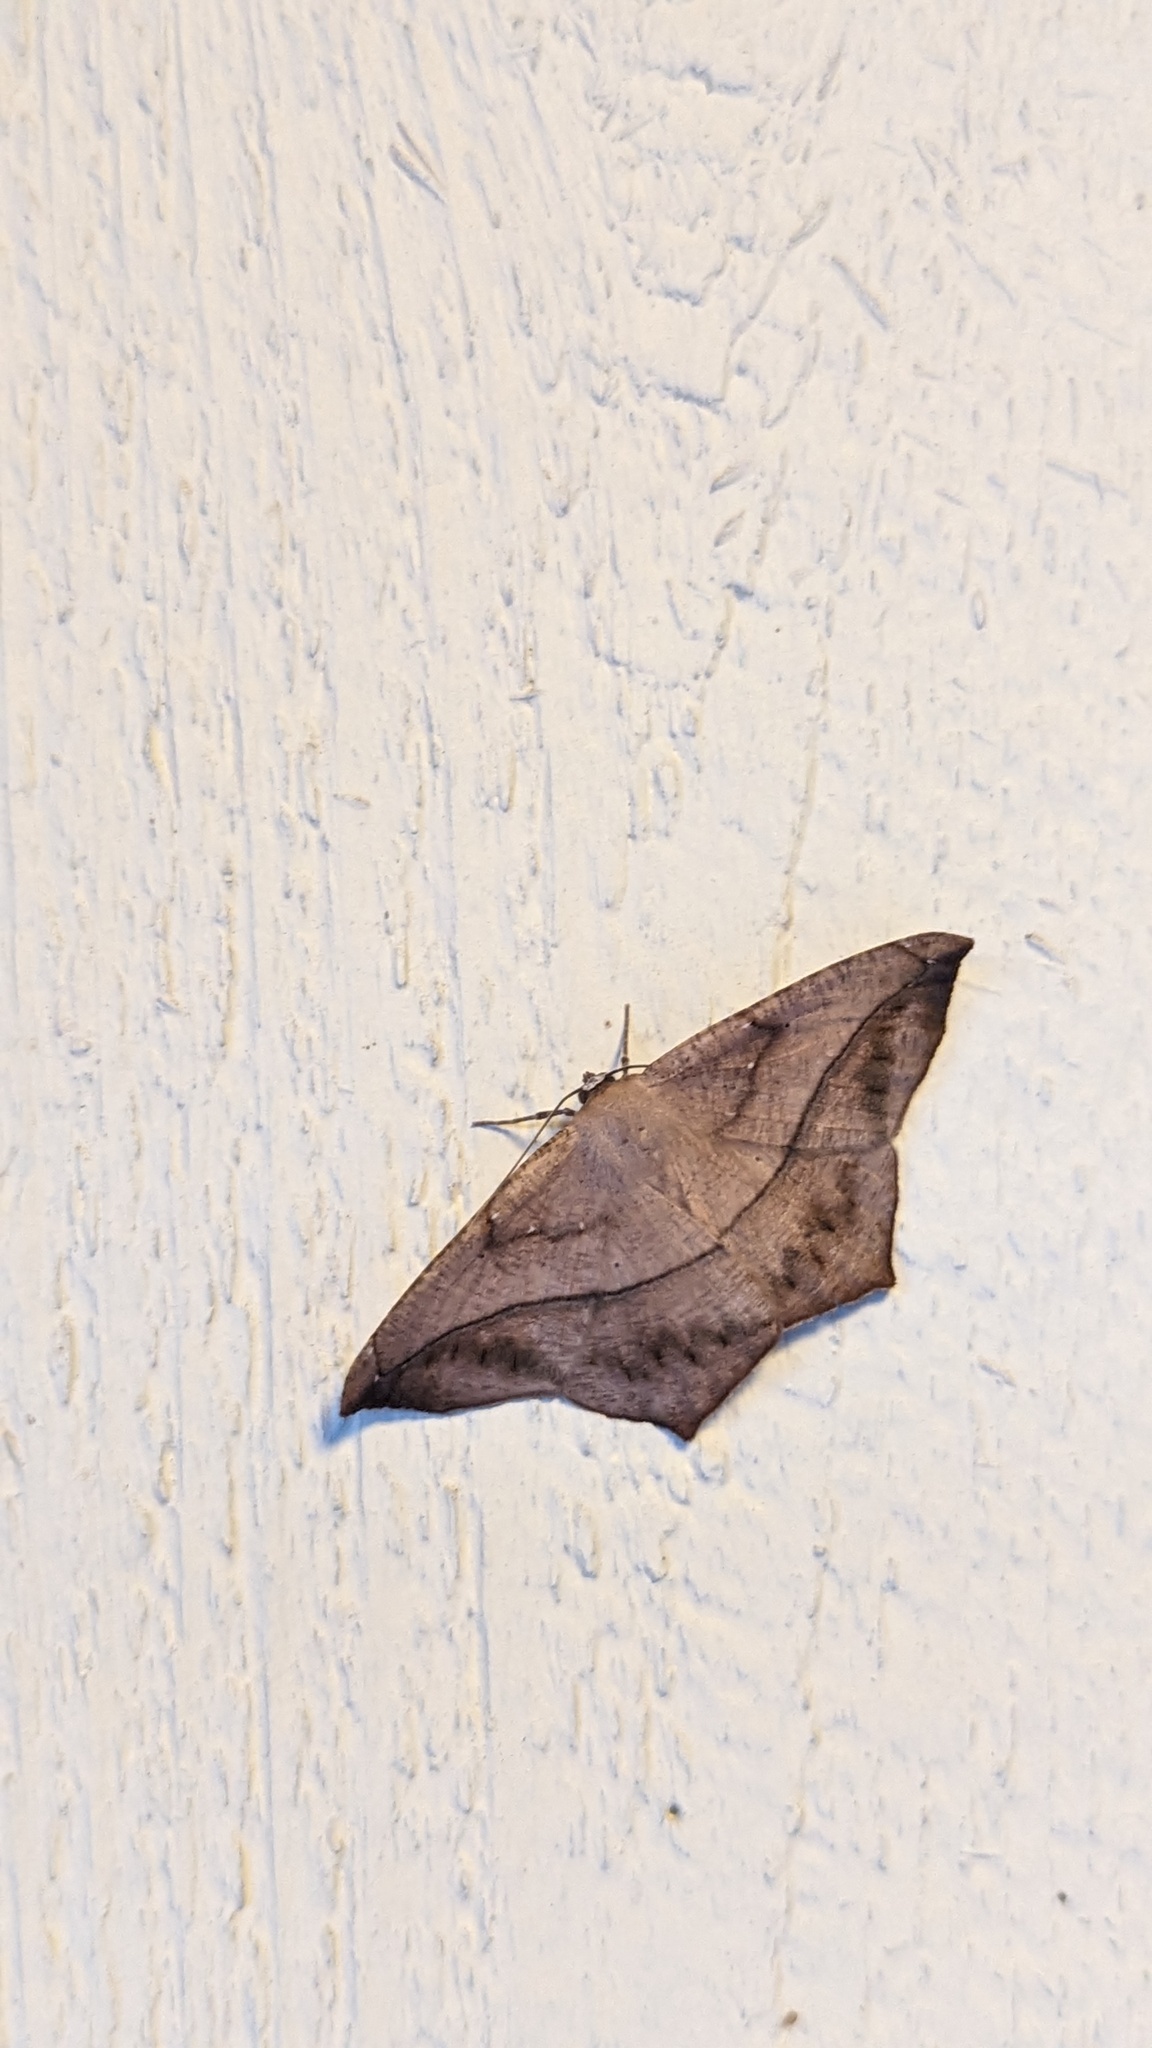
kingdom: Animalia
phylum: Arthropoda
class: Insecta
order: Lepidoptera
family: Geometridae
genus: Prochoerodes
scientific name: Prochoerodes lineola
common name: Large maple spanworm
